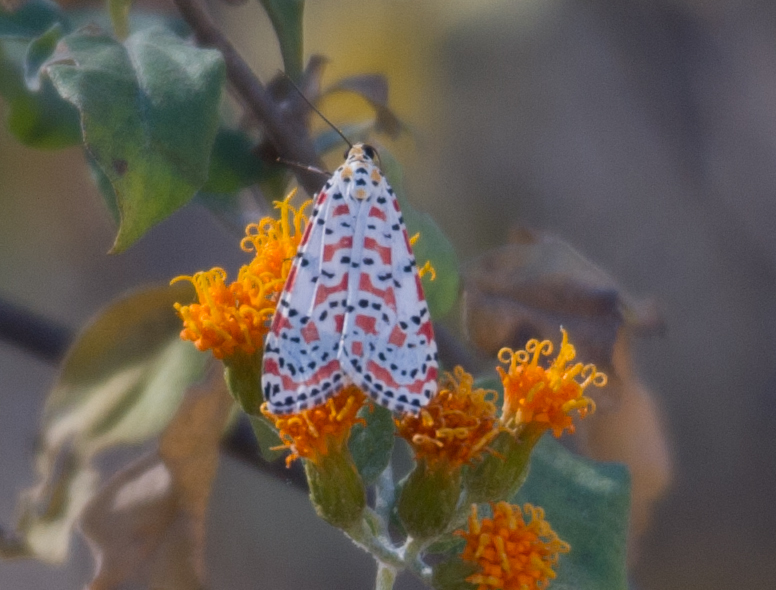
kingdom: Animalia
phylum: Arthropoda
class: Insecta
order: Lepidoptera
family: Erebidae
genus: Utetheisa
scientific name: Utetheisa pulchella
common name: Crimson speckled
